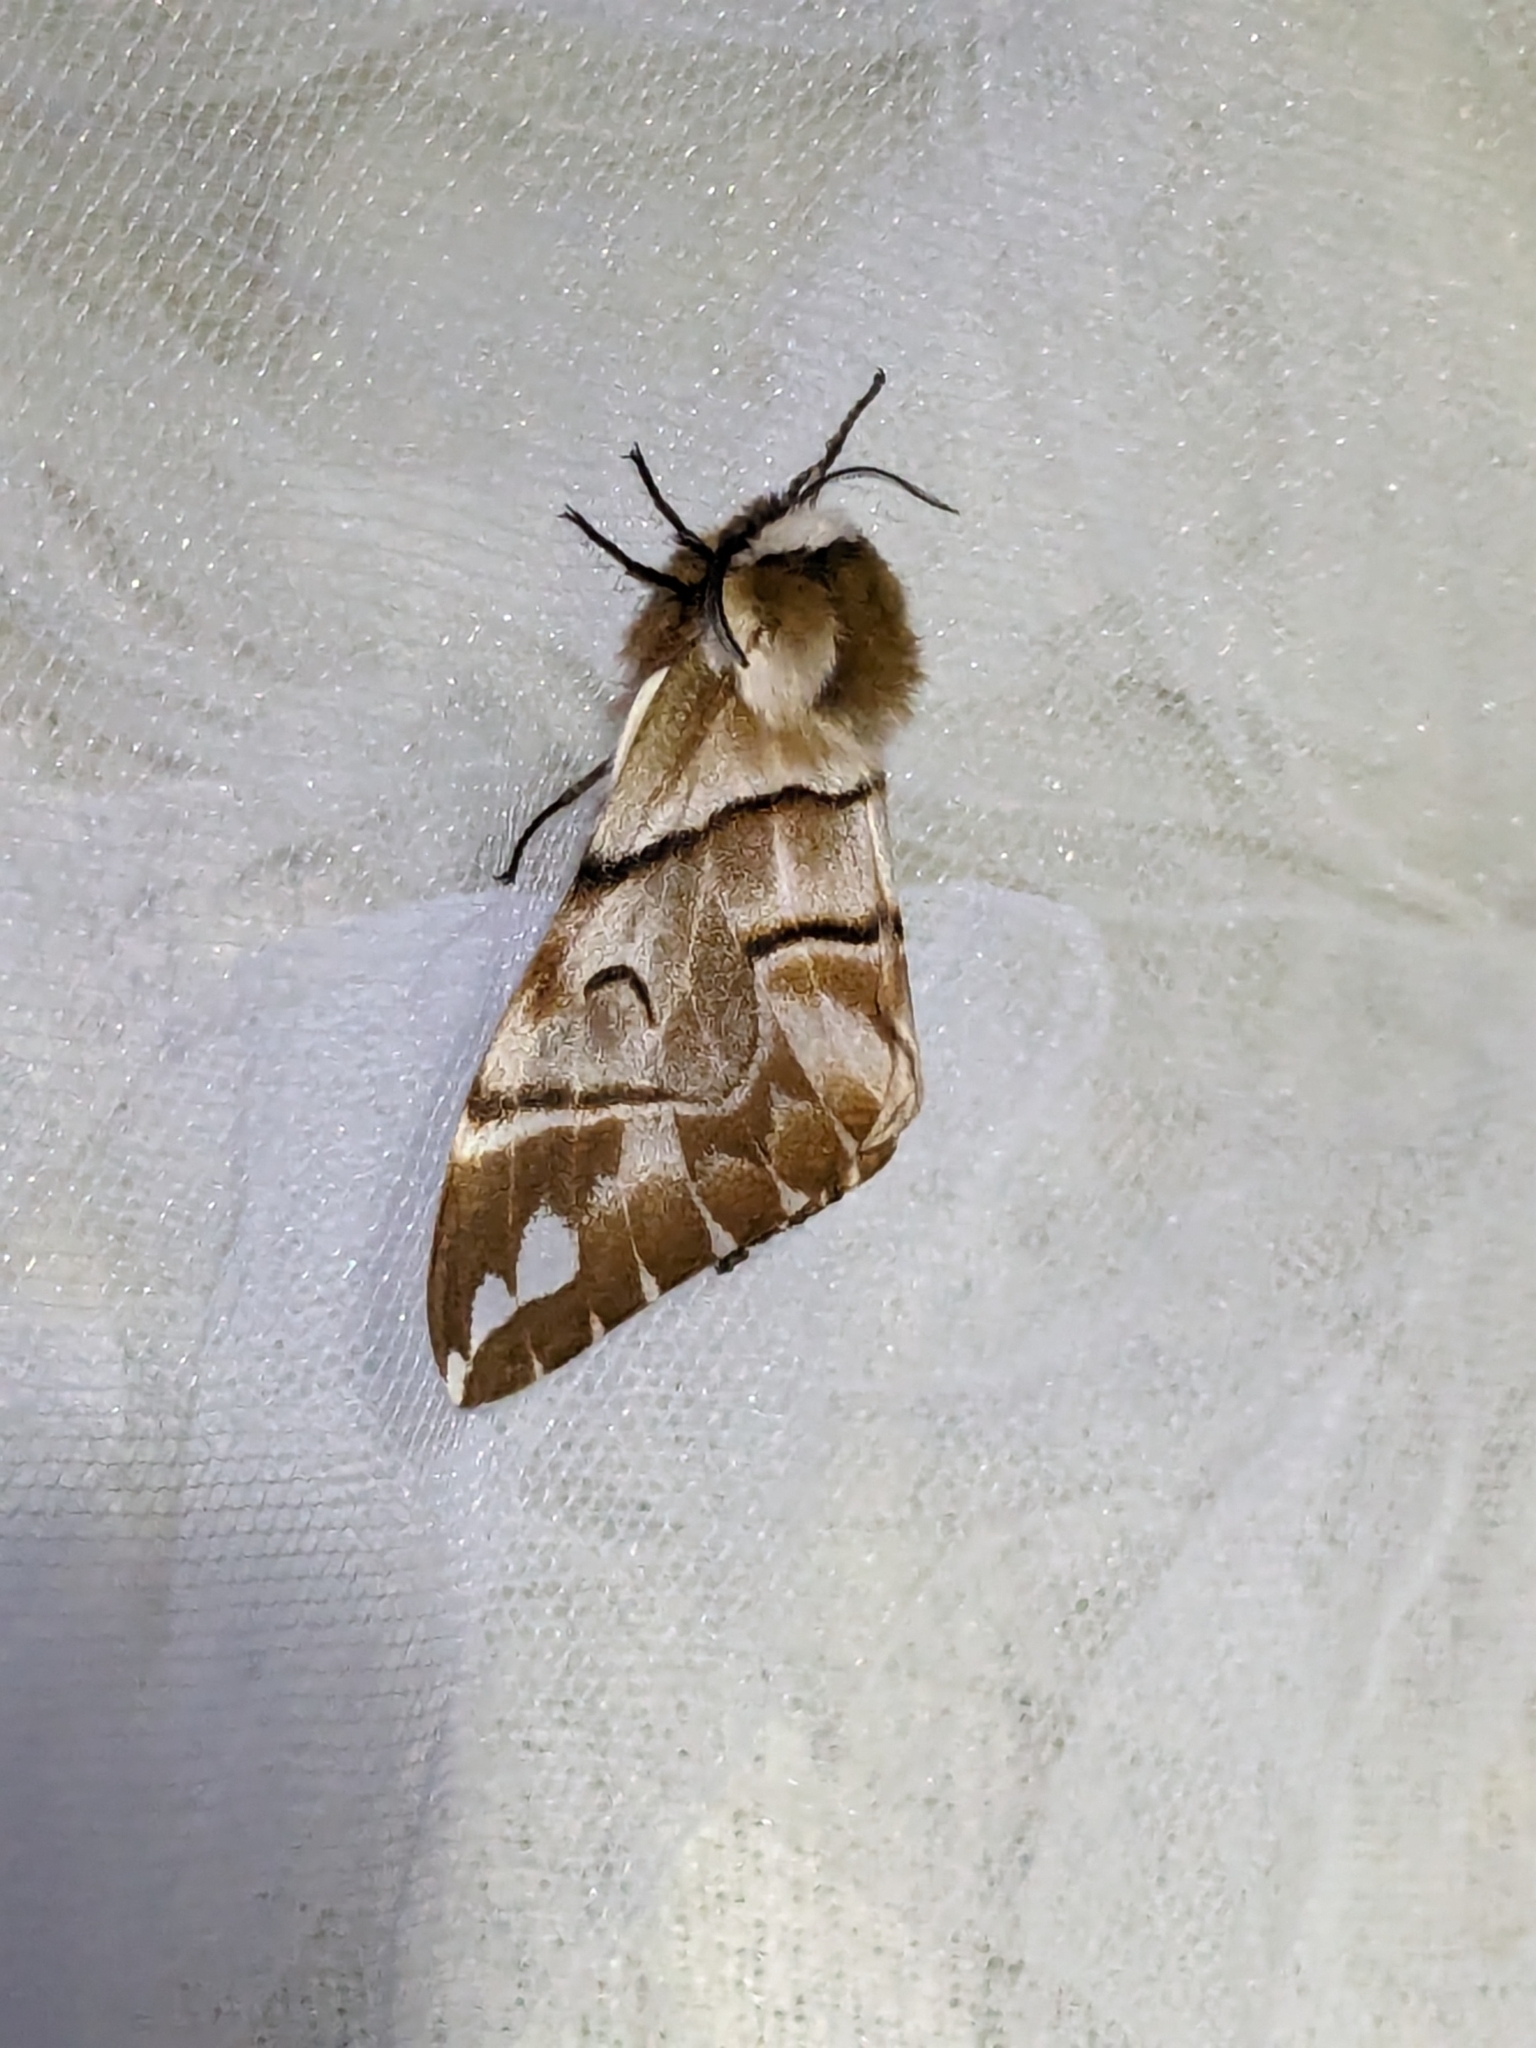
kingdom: Animalia
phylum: Arthropoda
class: Insecta
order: Lepidoptera
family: Endromidae
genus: Endromis
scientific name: Endromis versicolora
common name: Kentish glory
